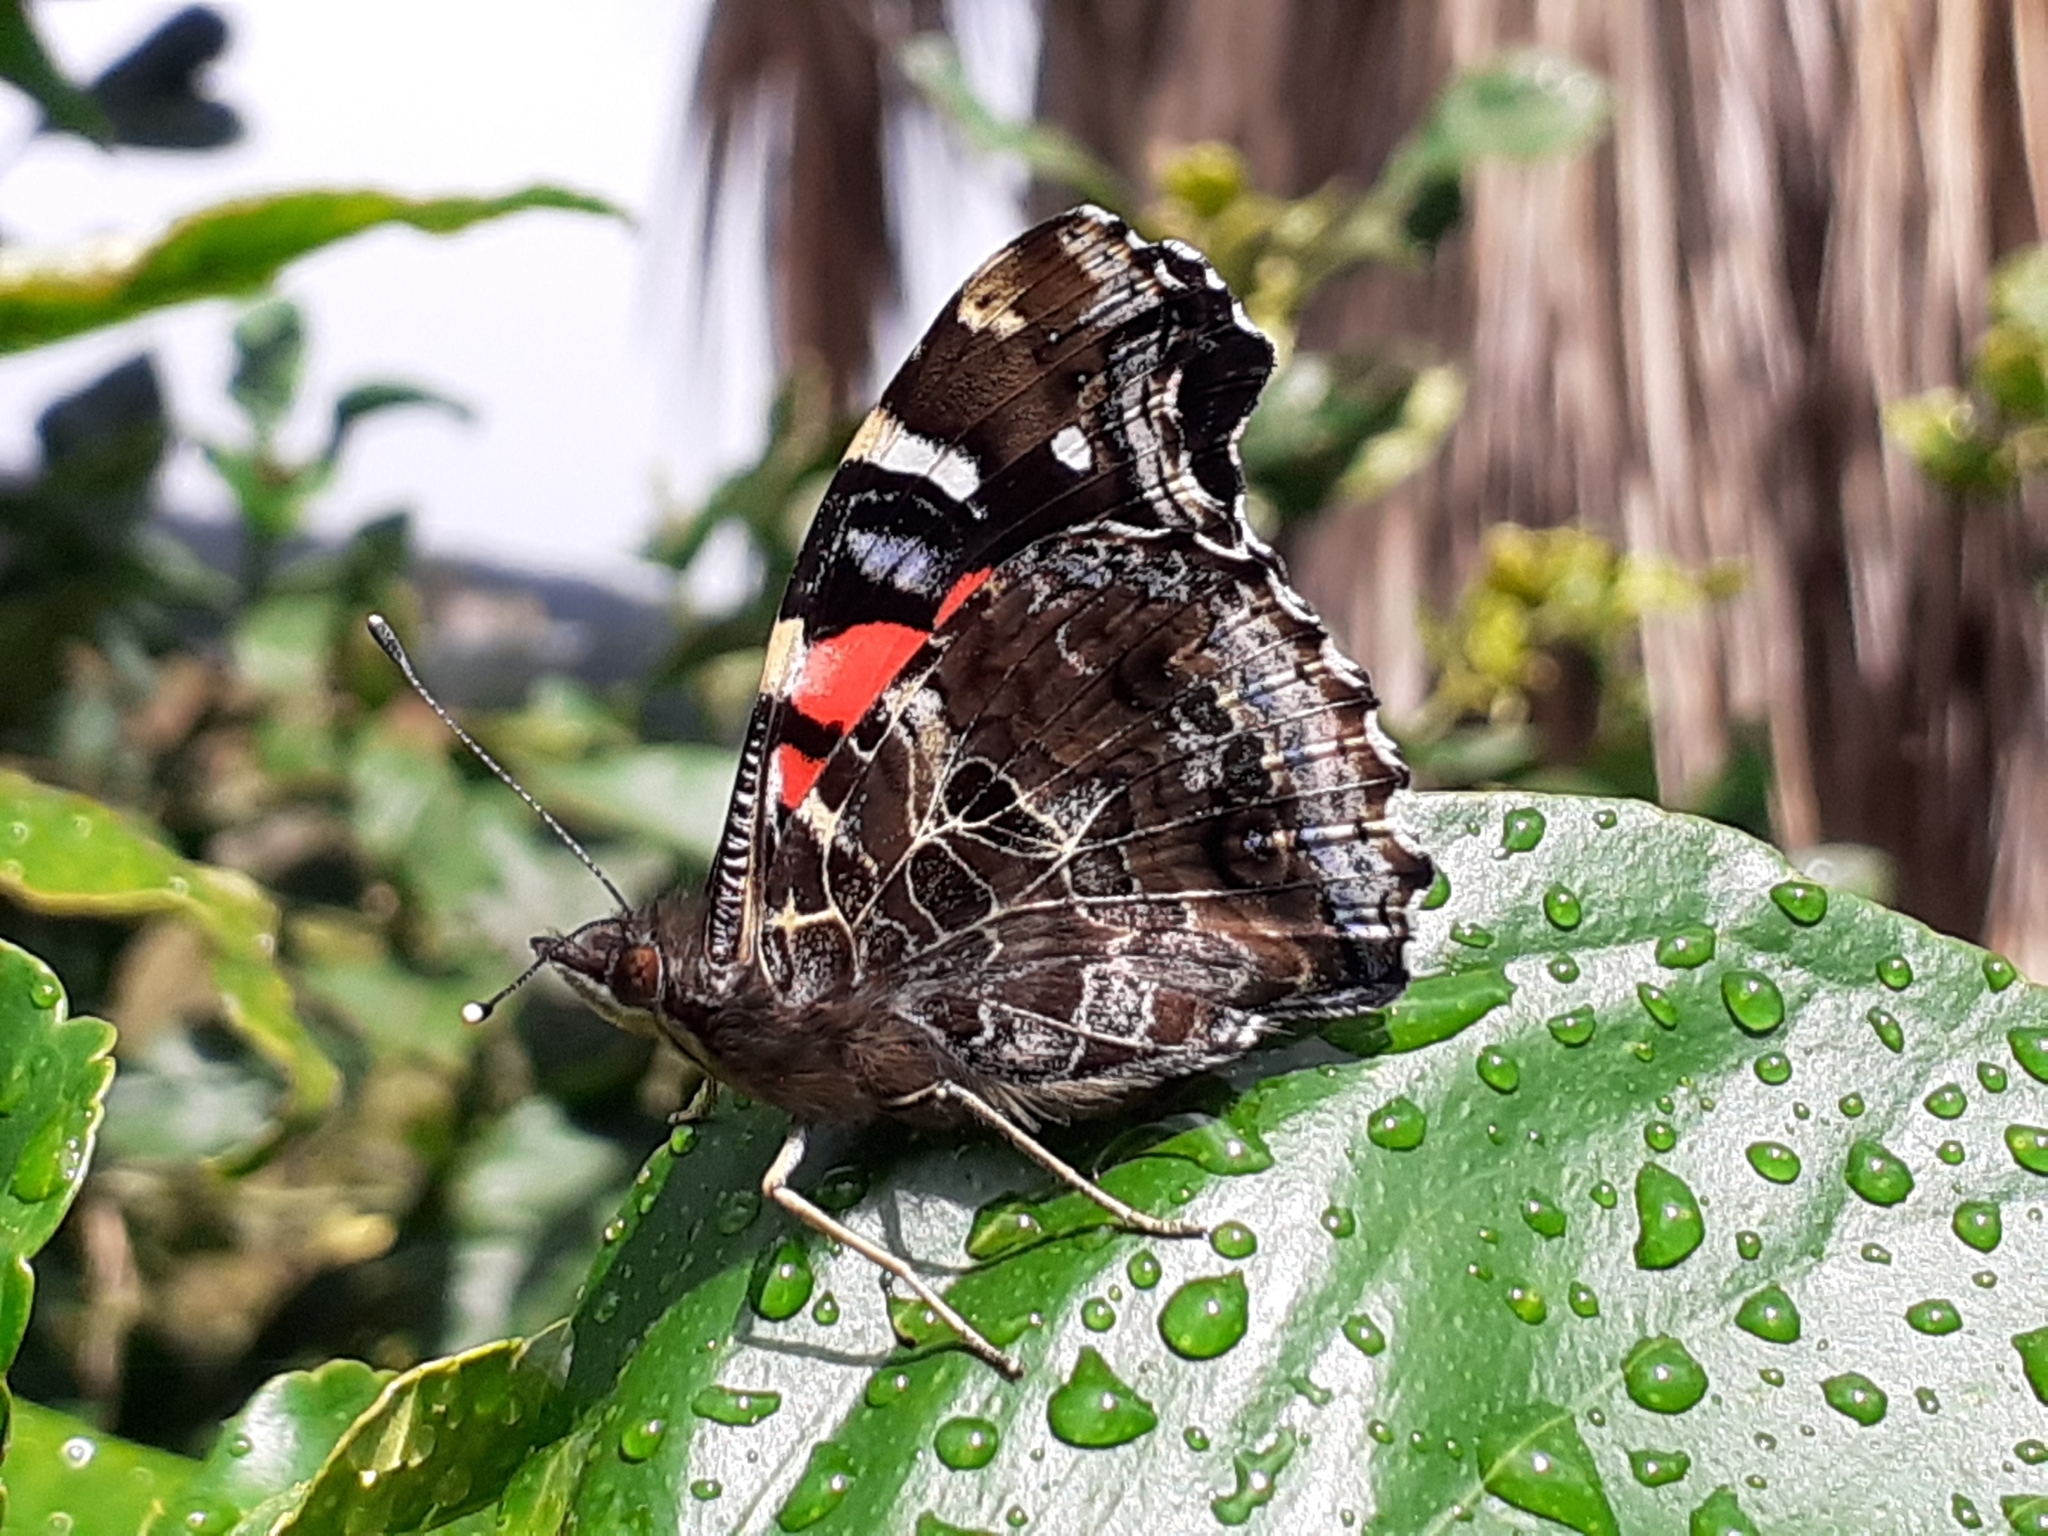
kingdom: Animalia
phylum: Arthropoda
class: Insecta
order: Lepidoptera
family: Nymphalidae
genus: Vanessa
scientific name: Vanessa vulcania
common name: Canary red admiral
